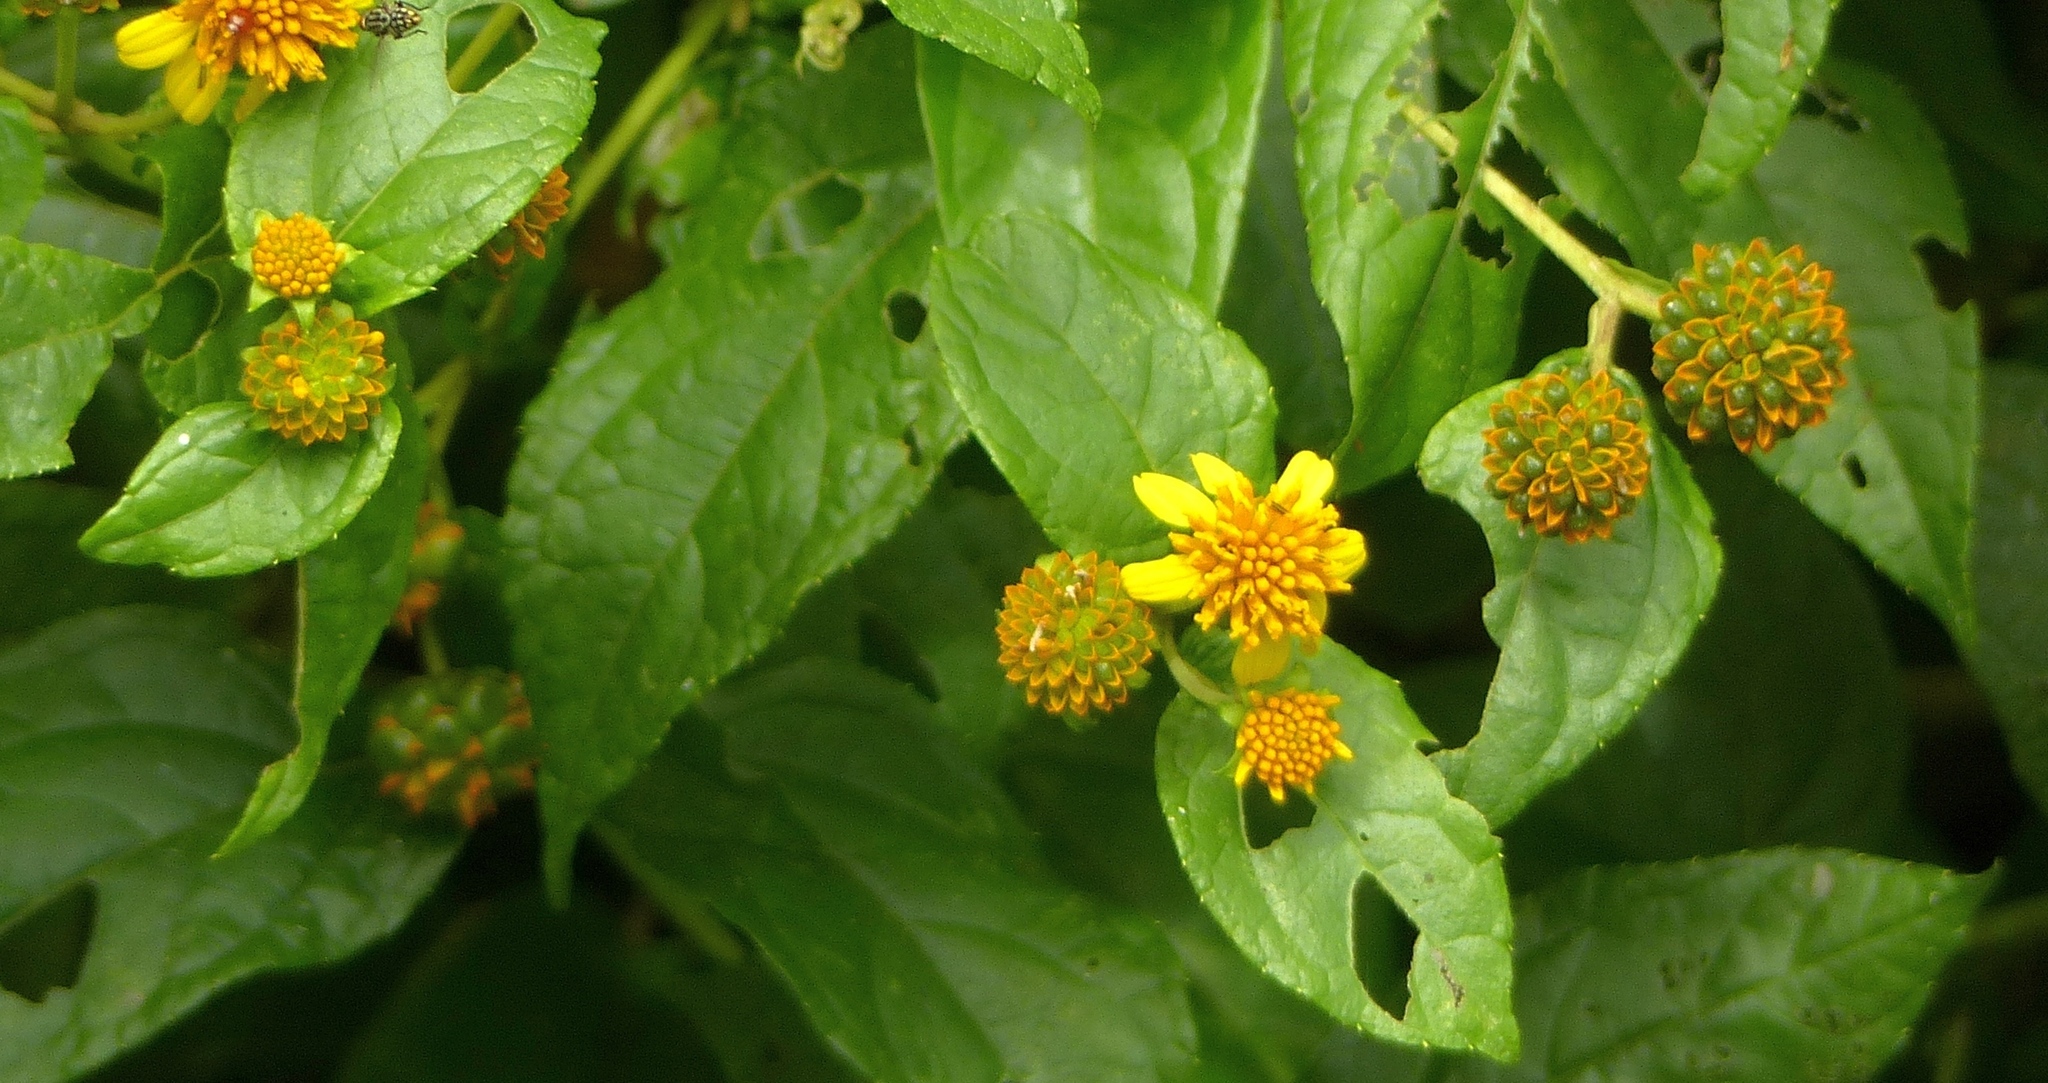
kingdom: Plantae
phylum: Tracheophyta
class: Magnoliopsida
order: Asterales
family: Asteraceae
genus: Tilesia
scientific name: Tilesia baccata
